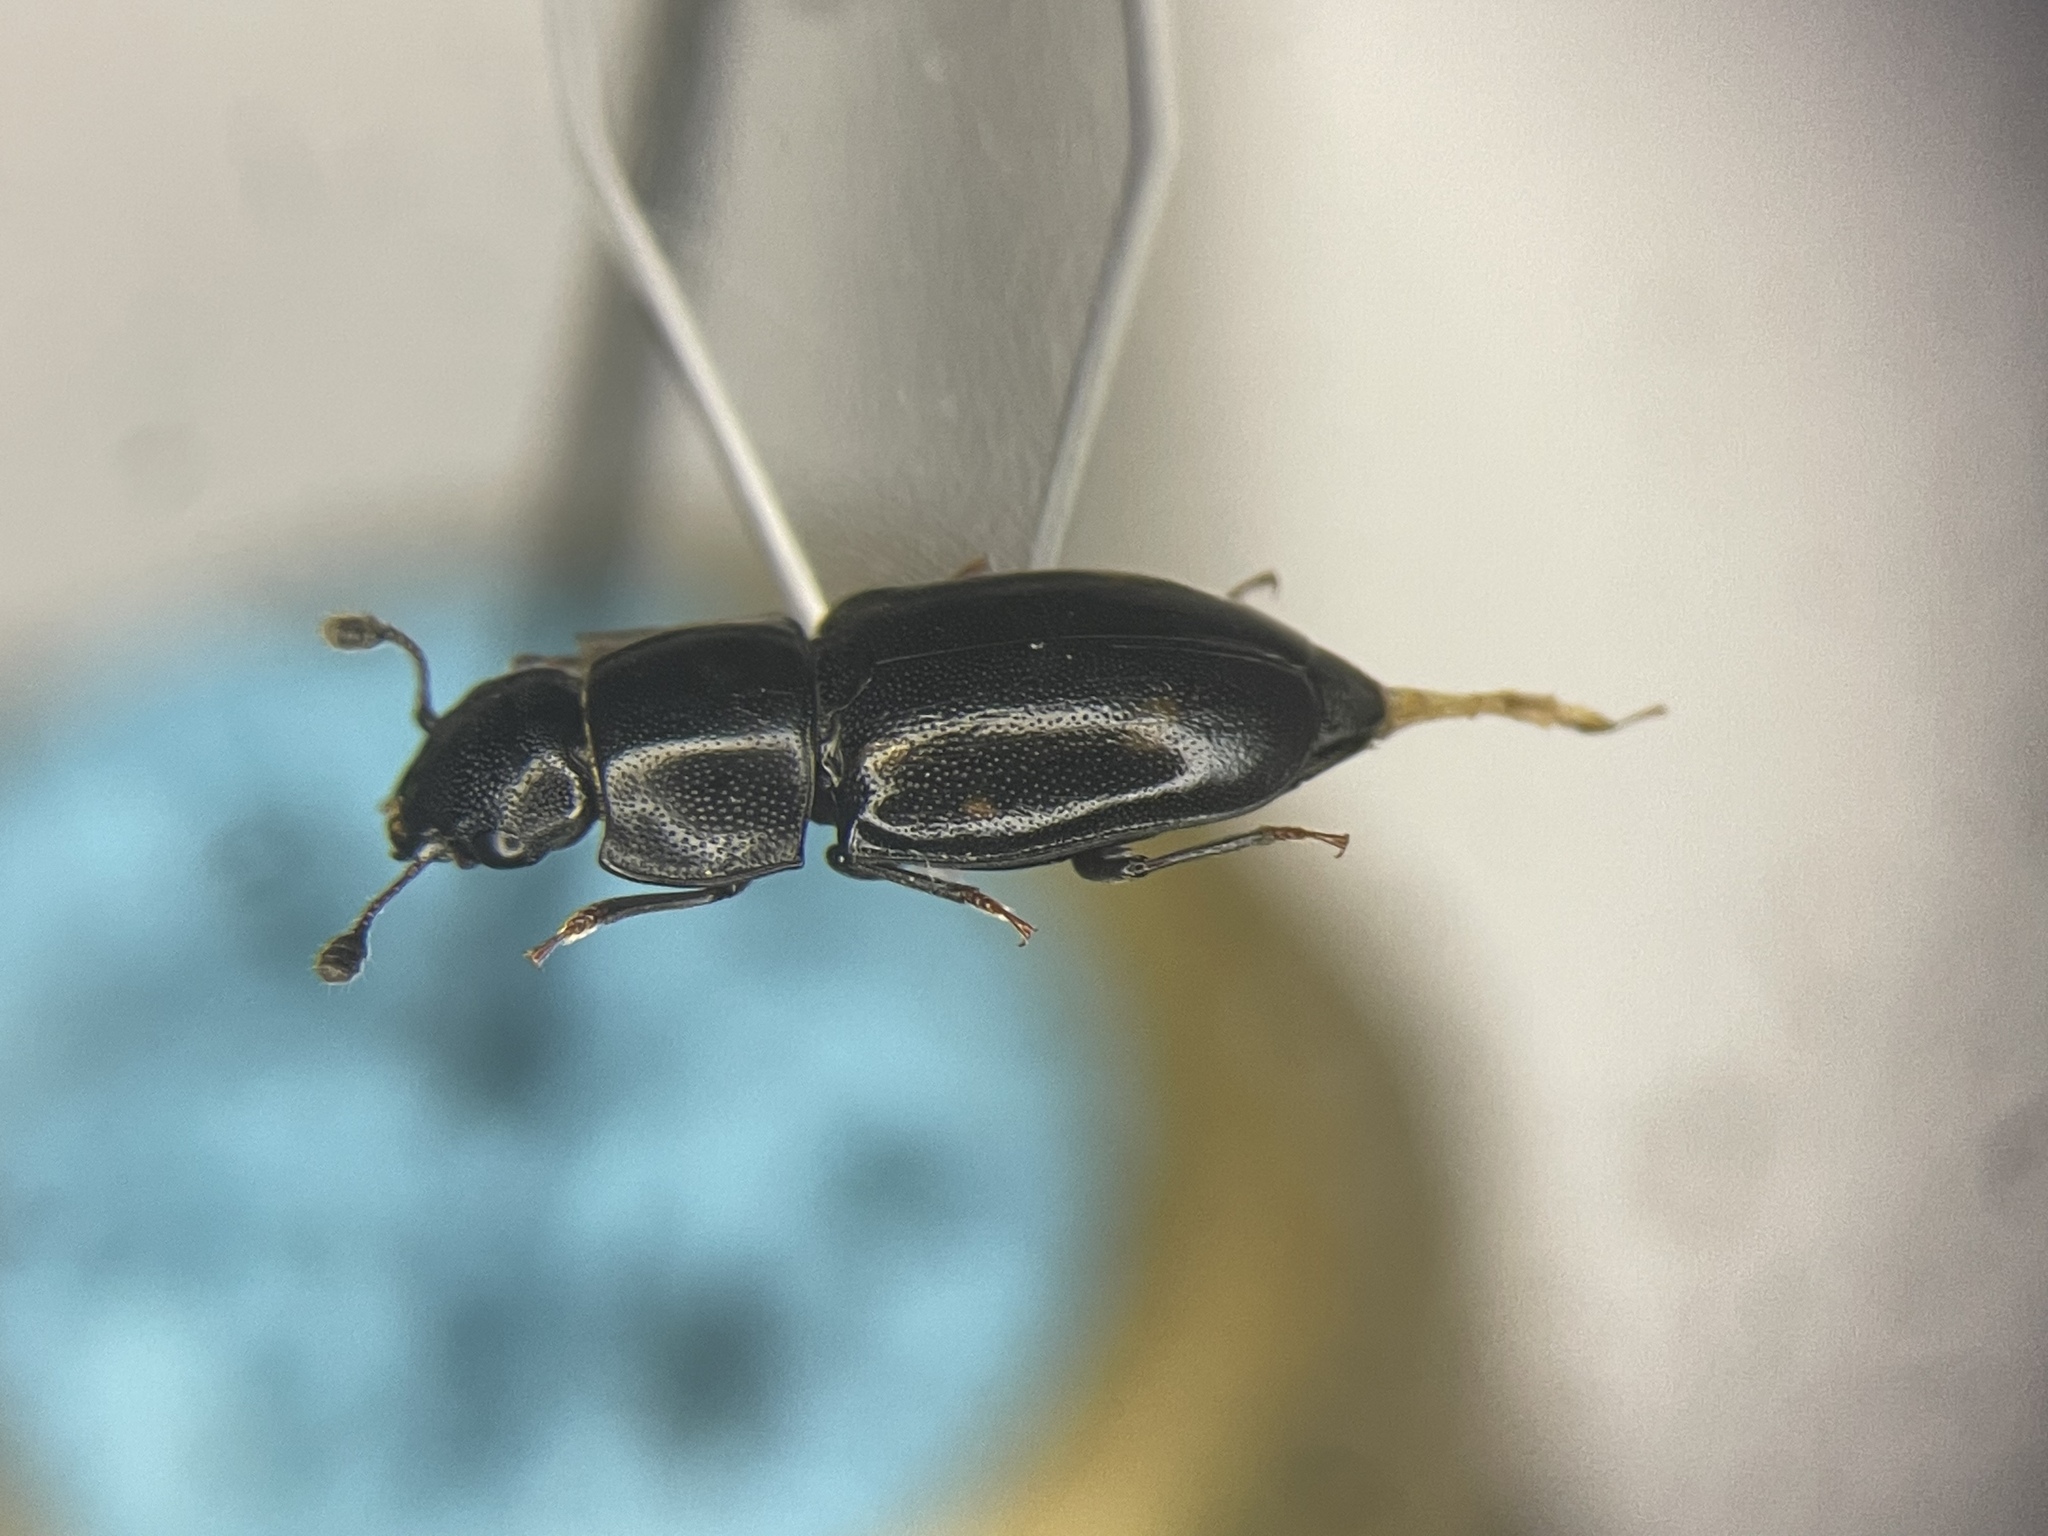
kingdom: Animalia
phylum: Arthropoda
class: Insecta
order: Coleoptera
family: Nitidulidae
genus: Glischrochilus
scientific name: Glischrochilus siepmanni
